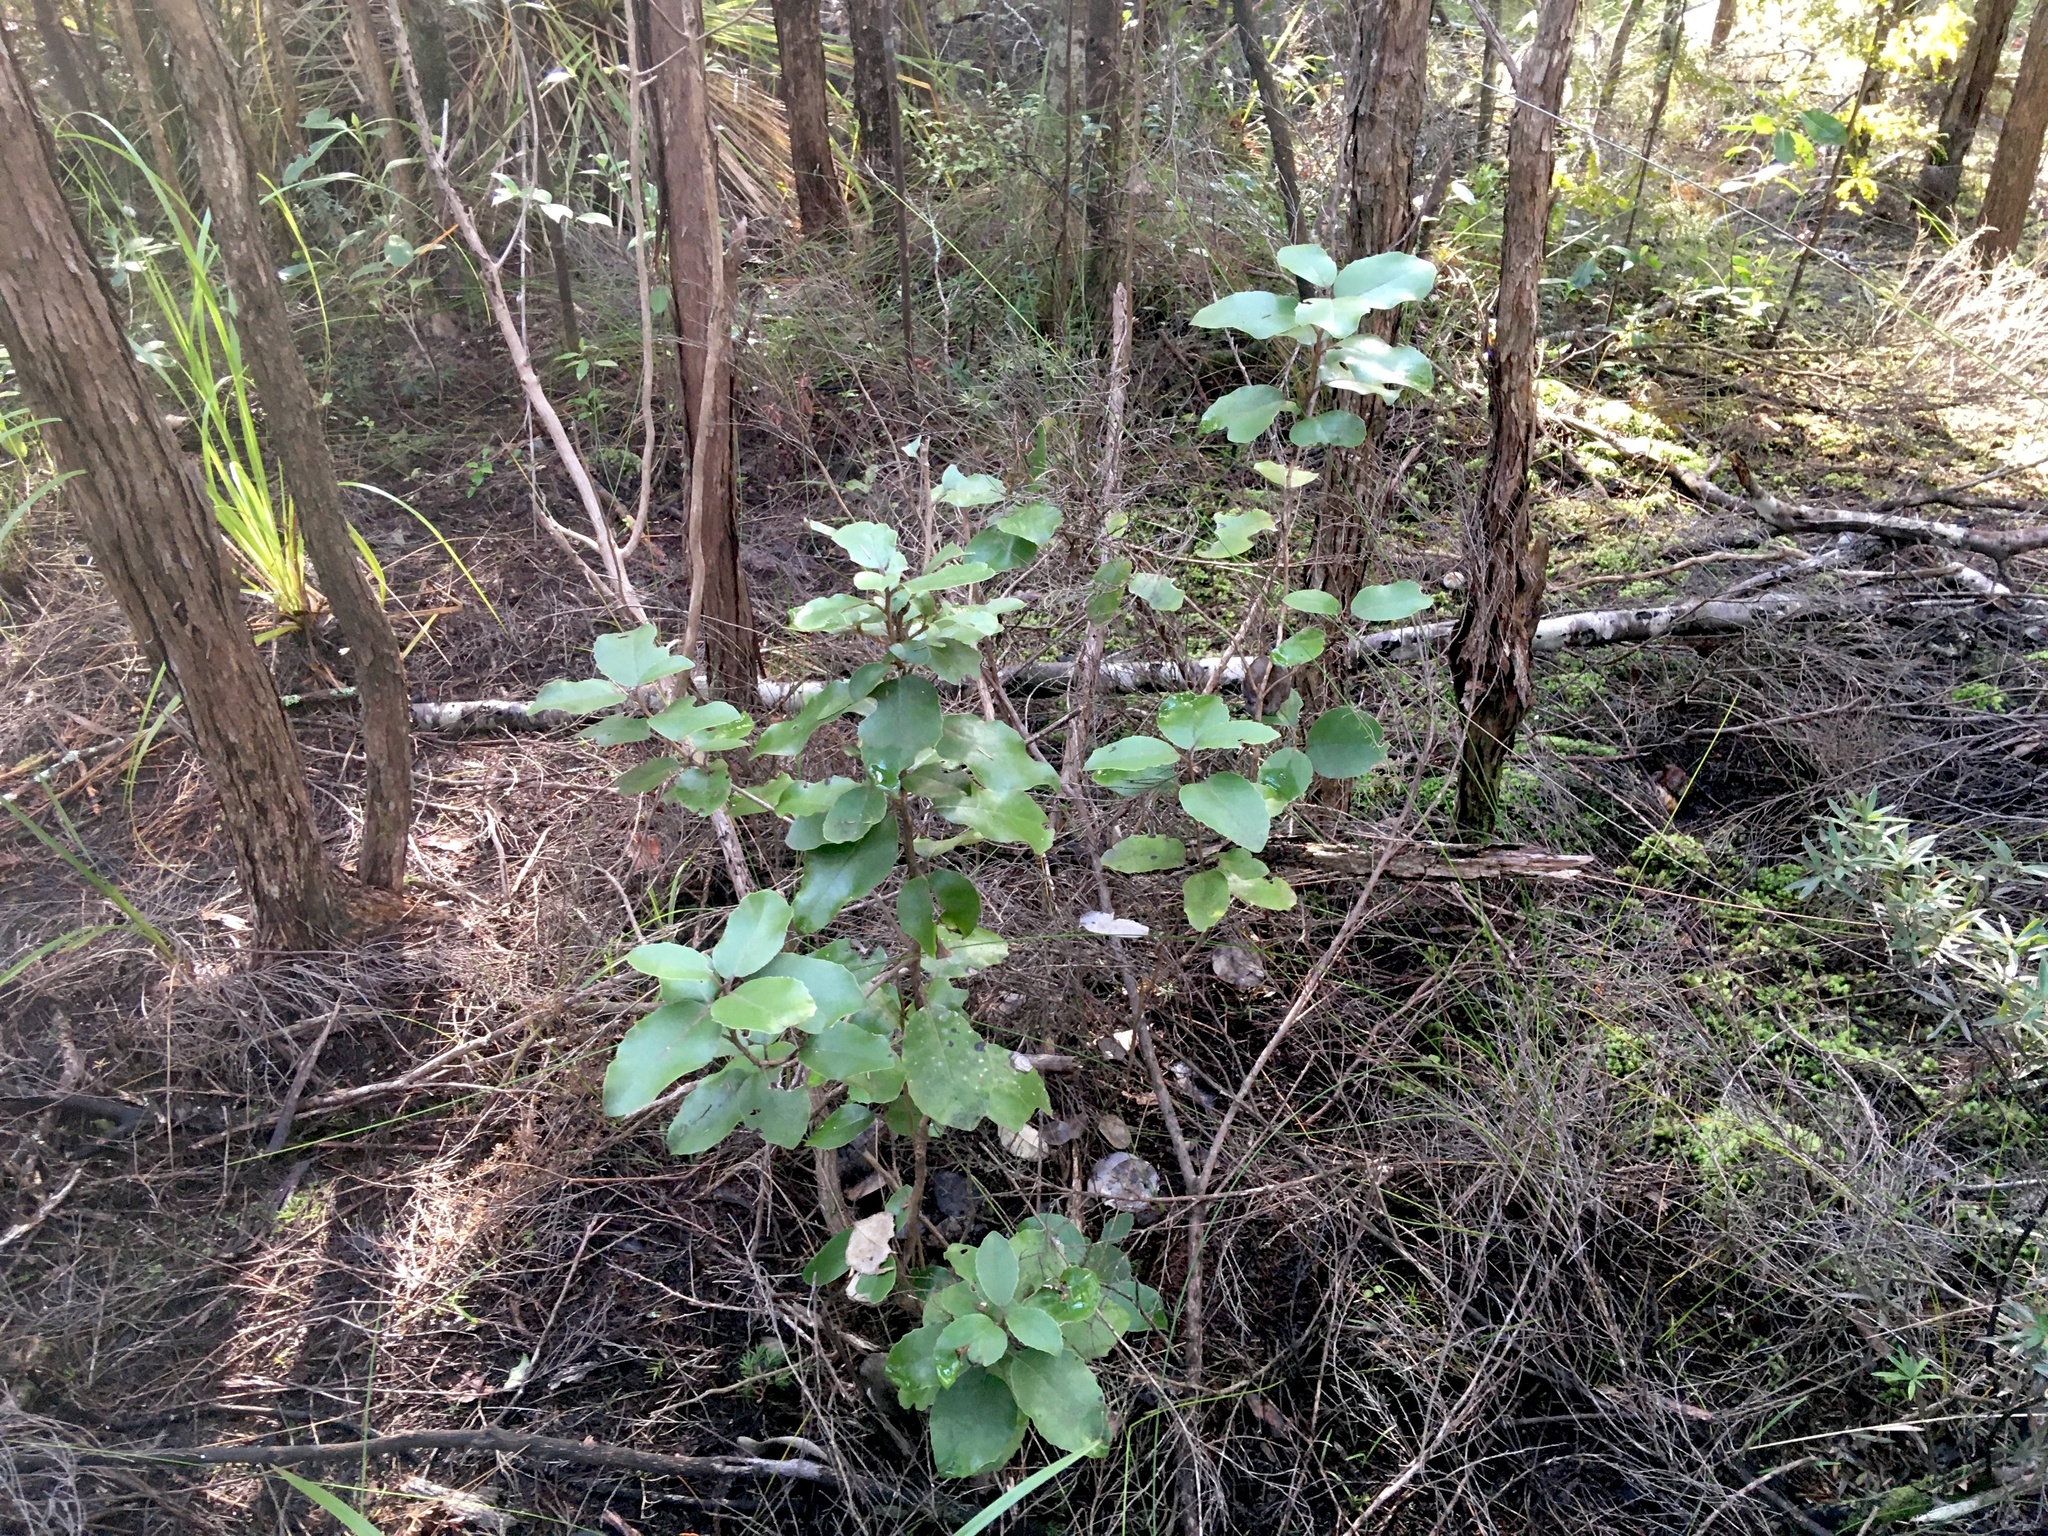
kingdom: Plantae
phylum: Tracheophyta
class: Magnoliopsida
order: Asterales
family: Asteraceae
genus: Olearia
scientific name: Olearia furfuracea
